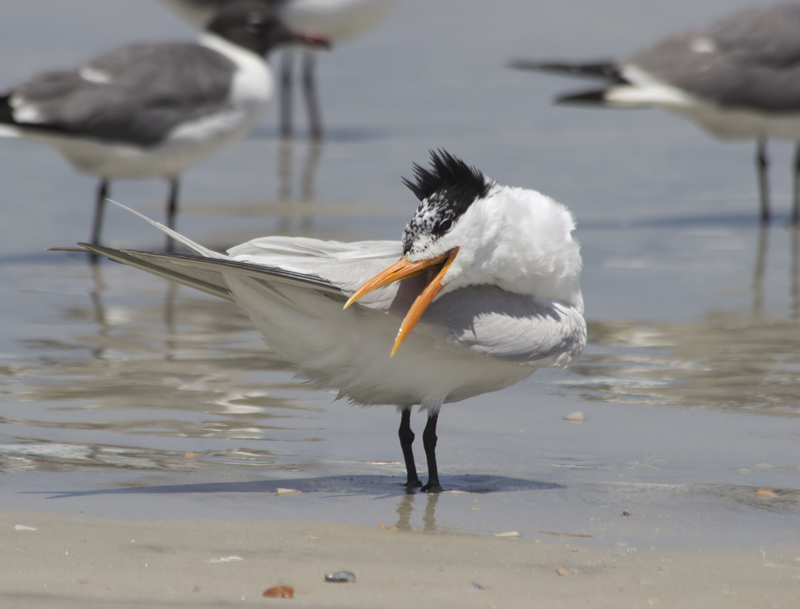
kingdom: Animalia
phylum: Chordata
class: Aves
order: Charadriiformes
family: Laridae
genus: Thalasseus
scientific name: Thalasseus maximus
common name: Royal tern
